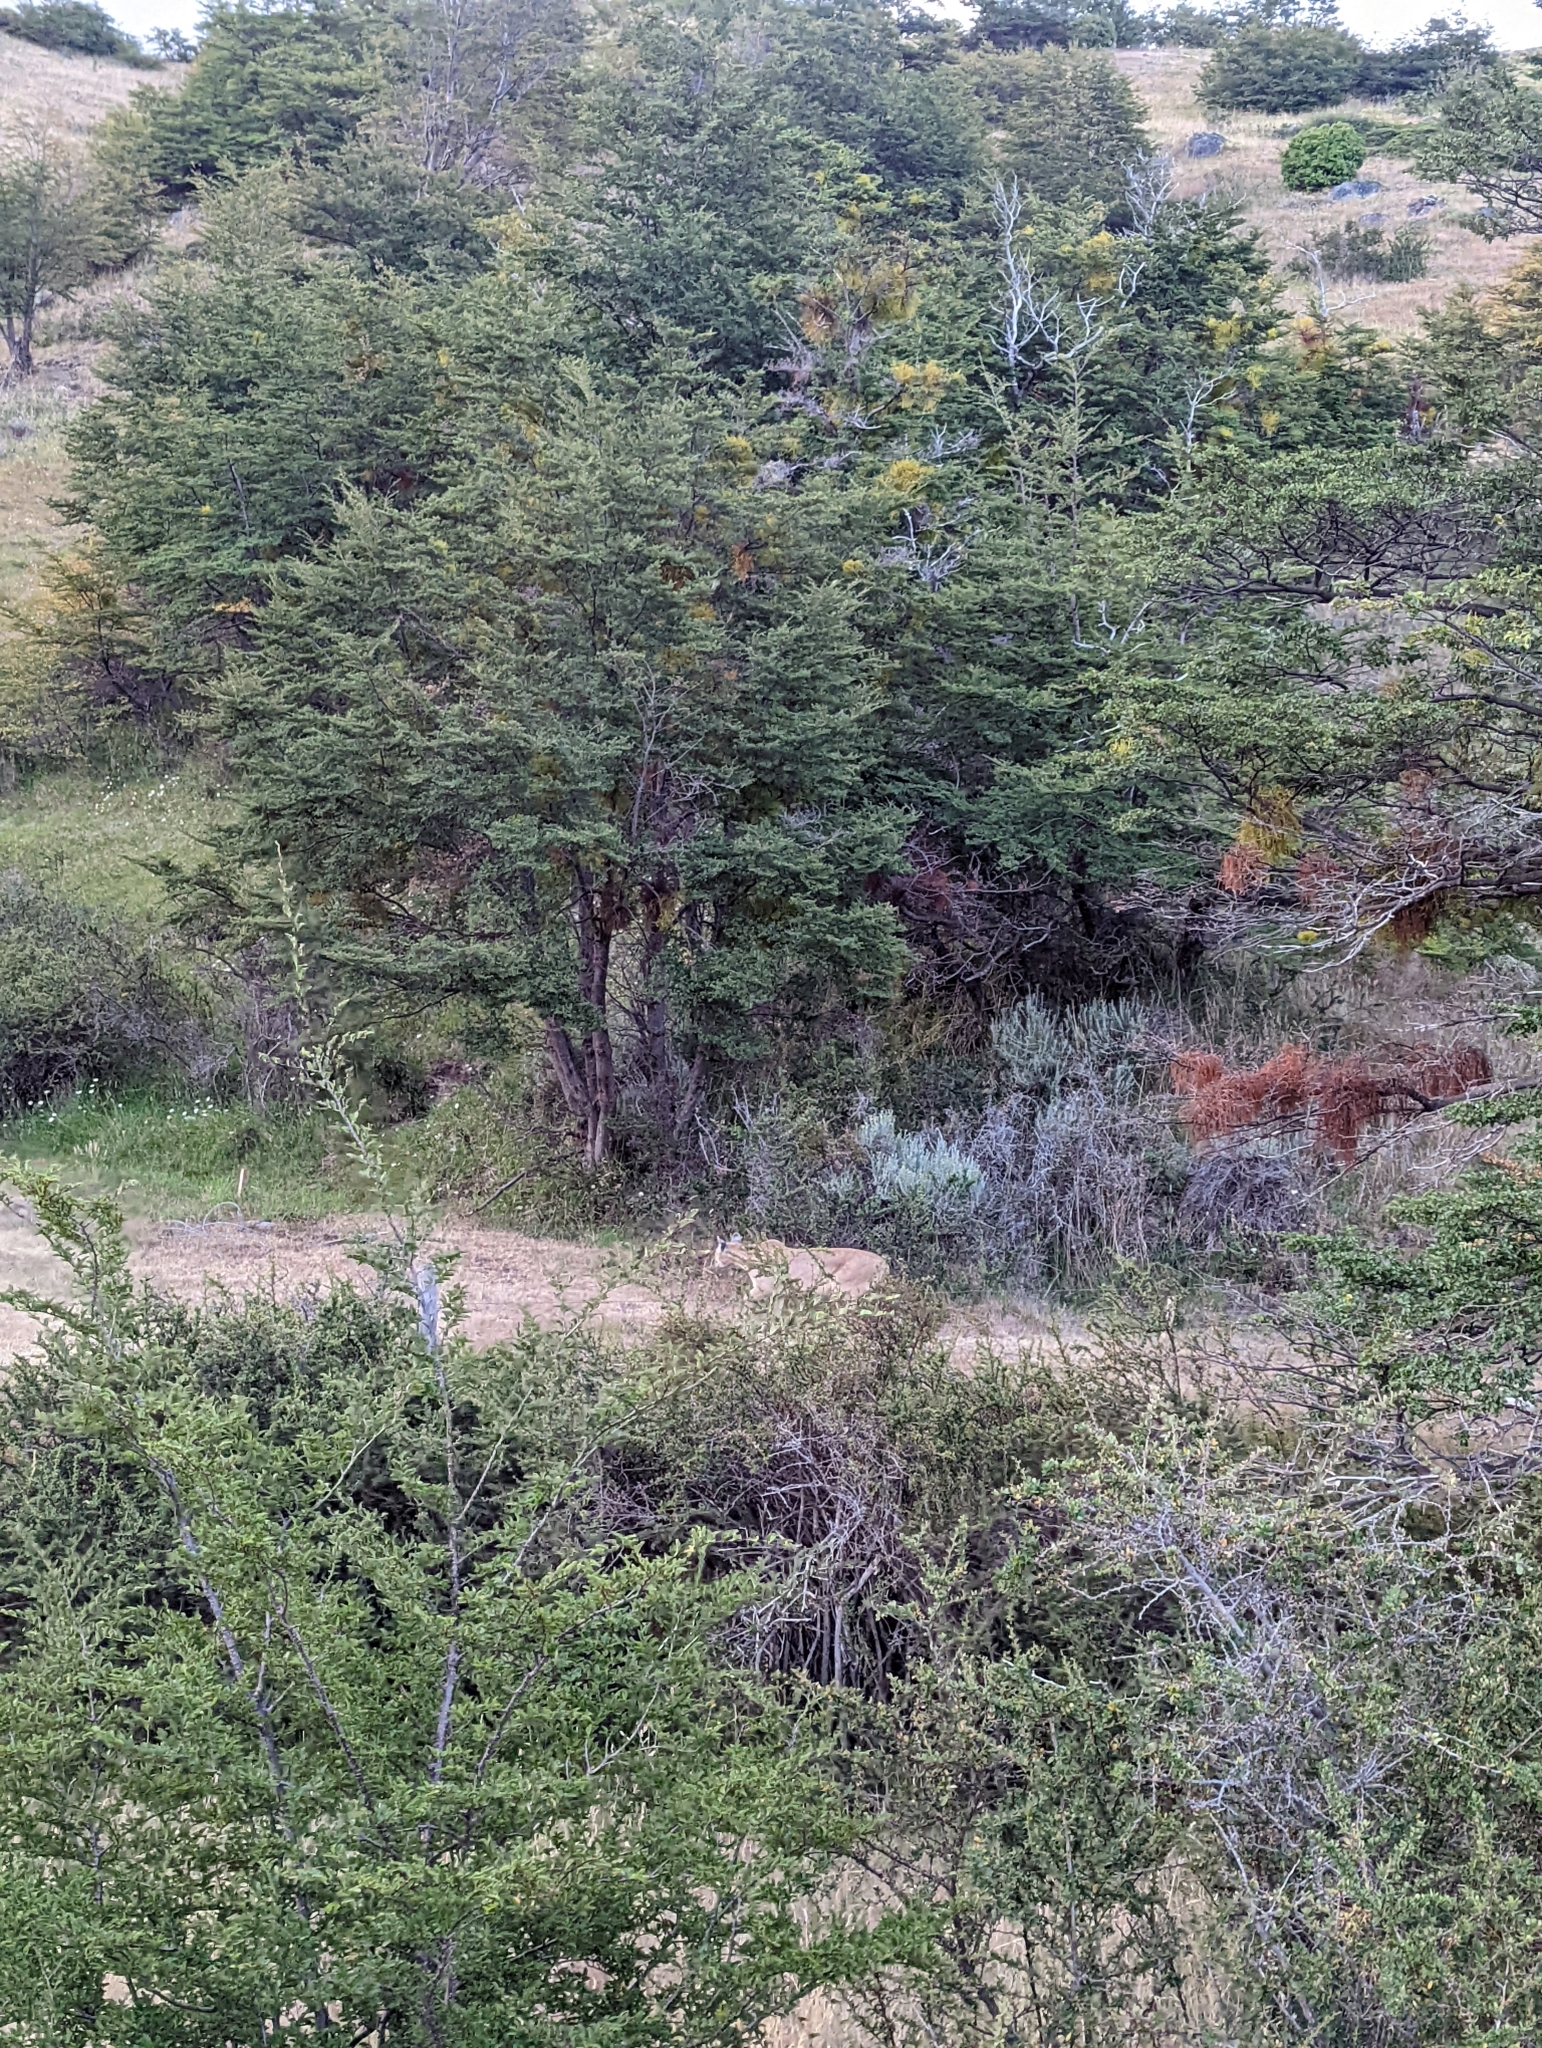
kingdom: Animalia
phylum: Chordata
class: Mammalia
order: Carnivora
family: Felidae
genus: Puma
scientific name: Puma concolor
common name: Puma
